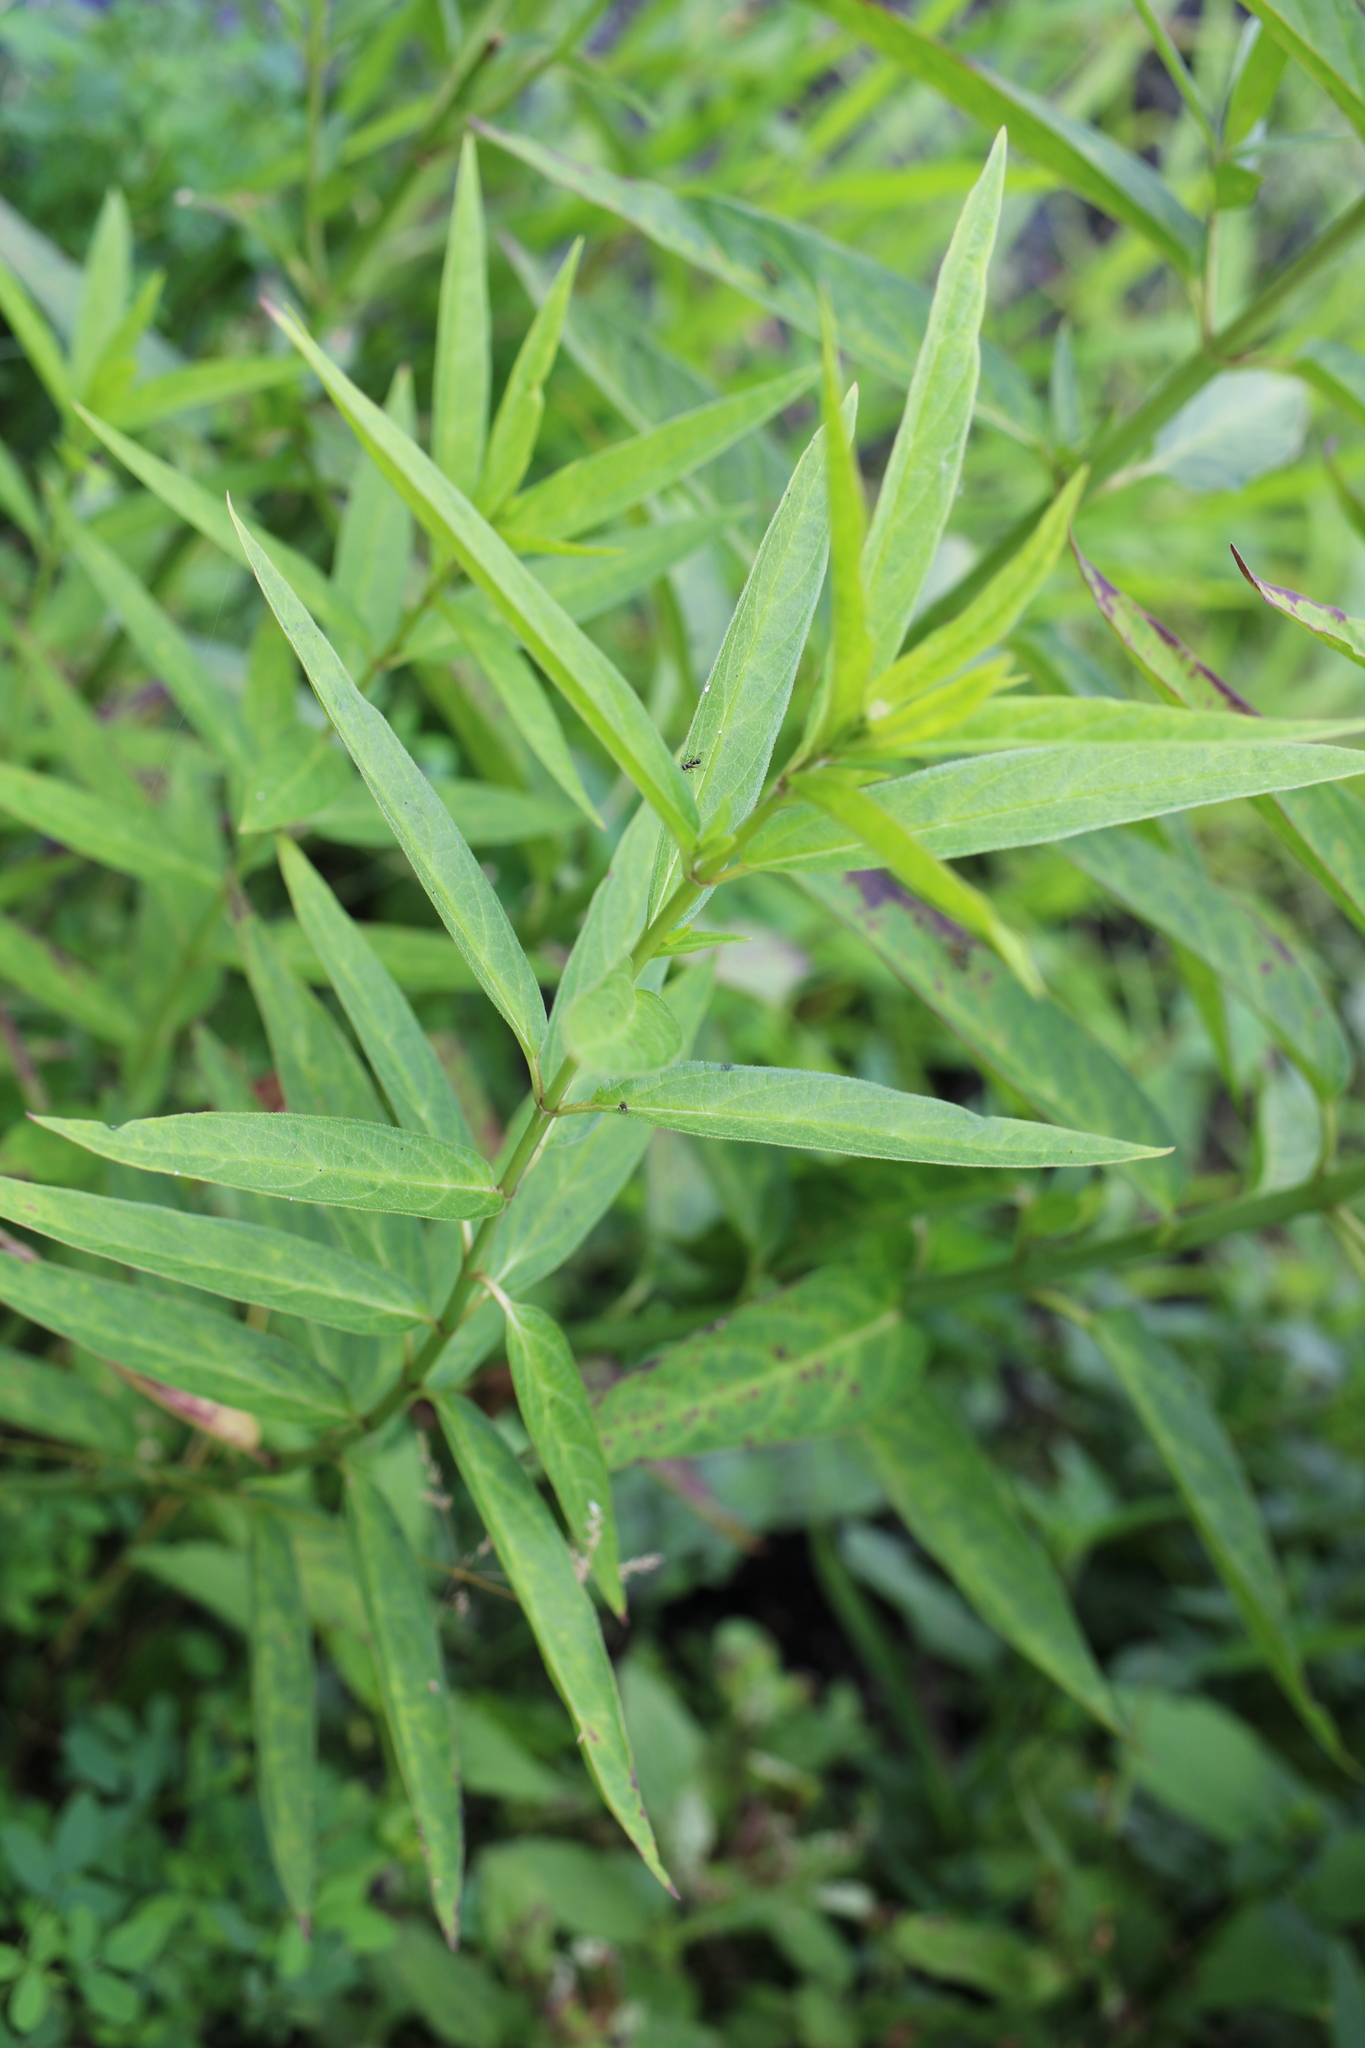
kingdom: Plantae
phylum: Tracheophyta
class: Magnoliopsida
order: Gentianales
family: Apocynaceae
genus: Asclepias
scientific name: Asclepias incarnata
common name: Swamp milkweed
